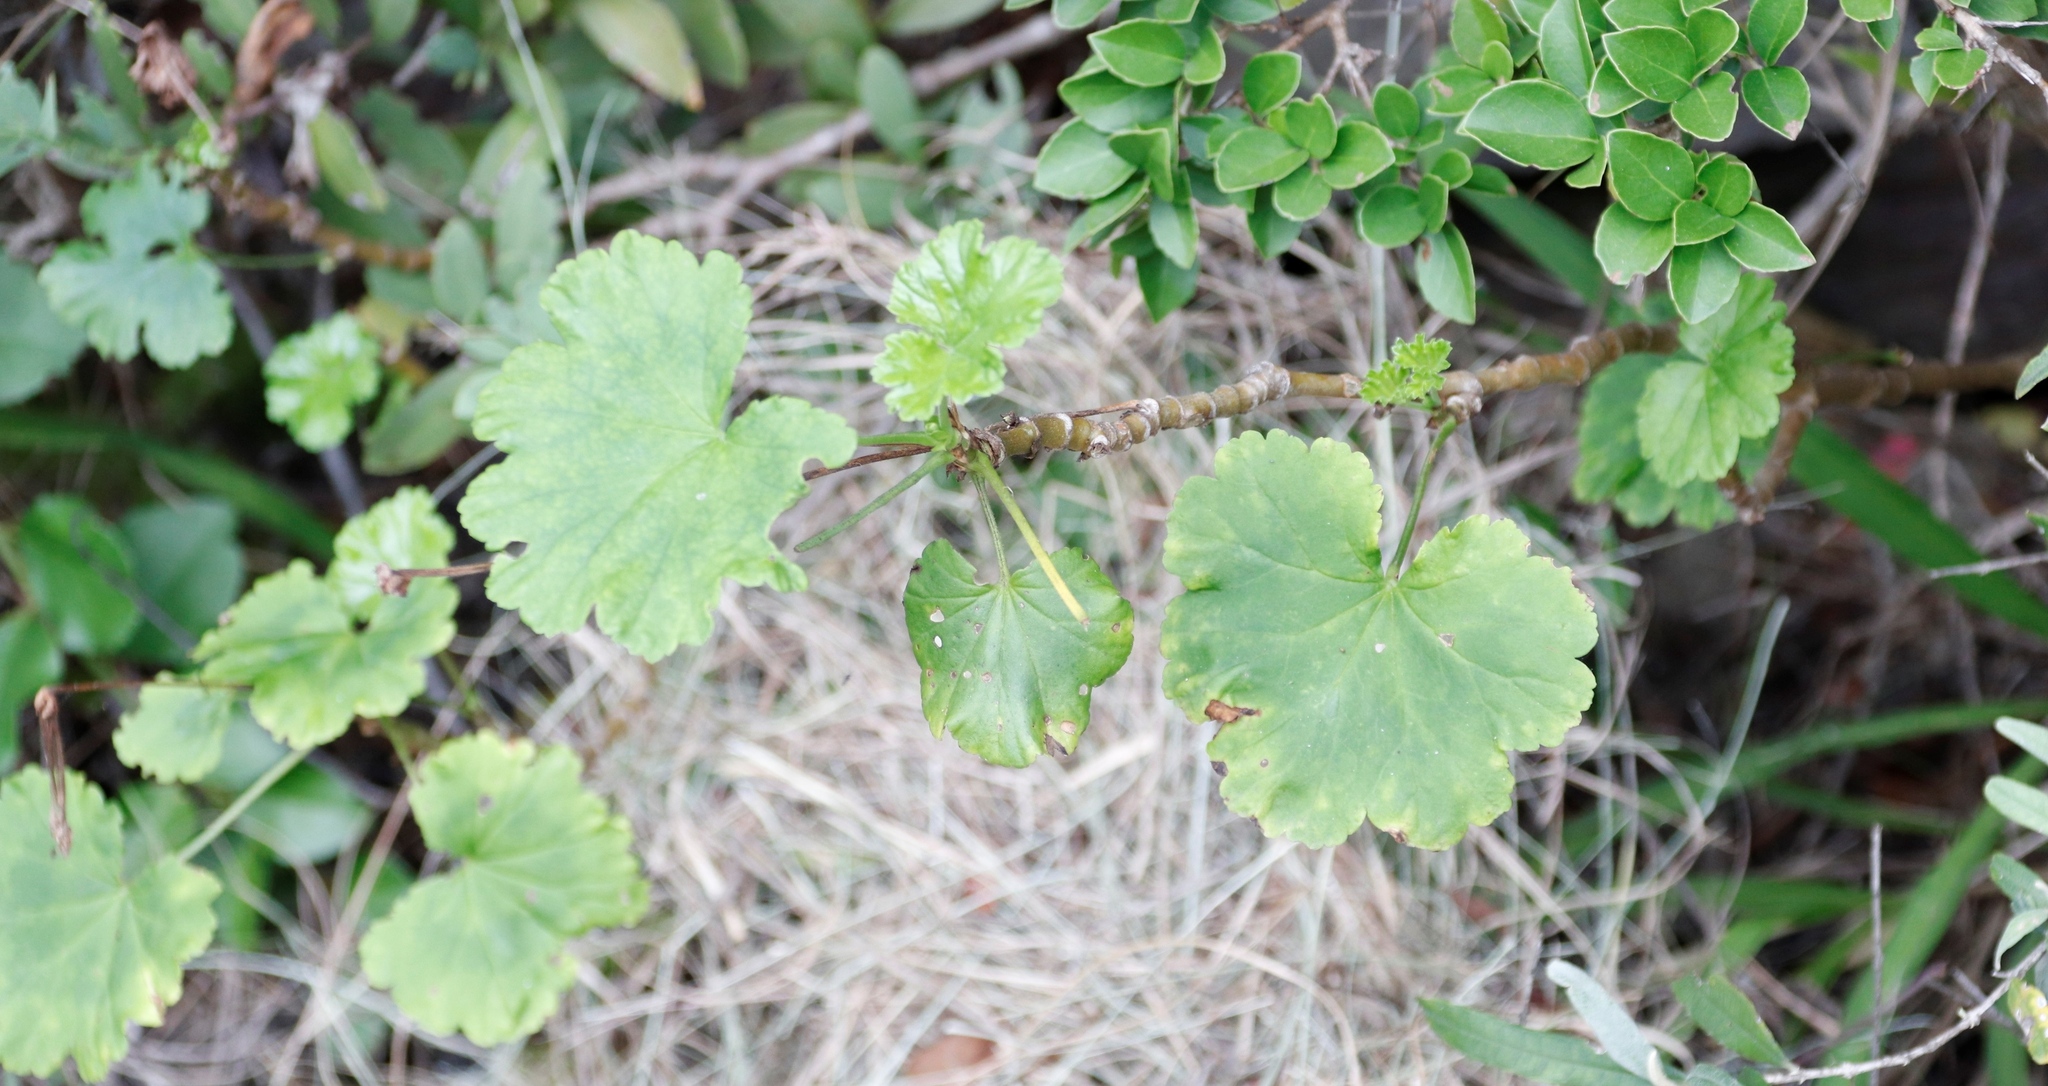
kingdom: Plantae
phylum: Tracheophyta
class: Magnoliopsida
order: Geraniales
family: Geraniaceae
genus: Pelargonium
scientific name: Pelargonium zonale
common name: Horseshoe geranium
